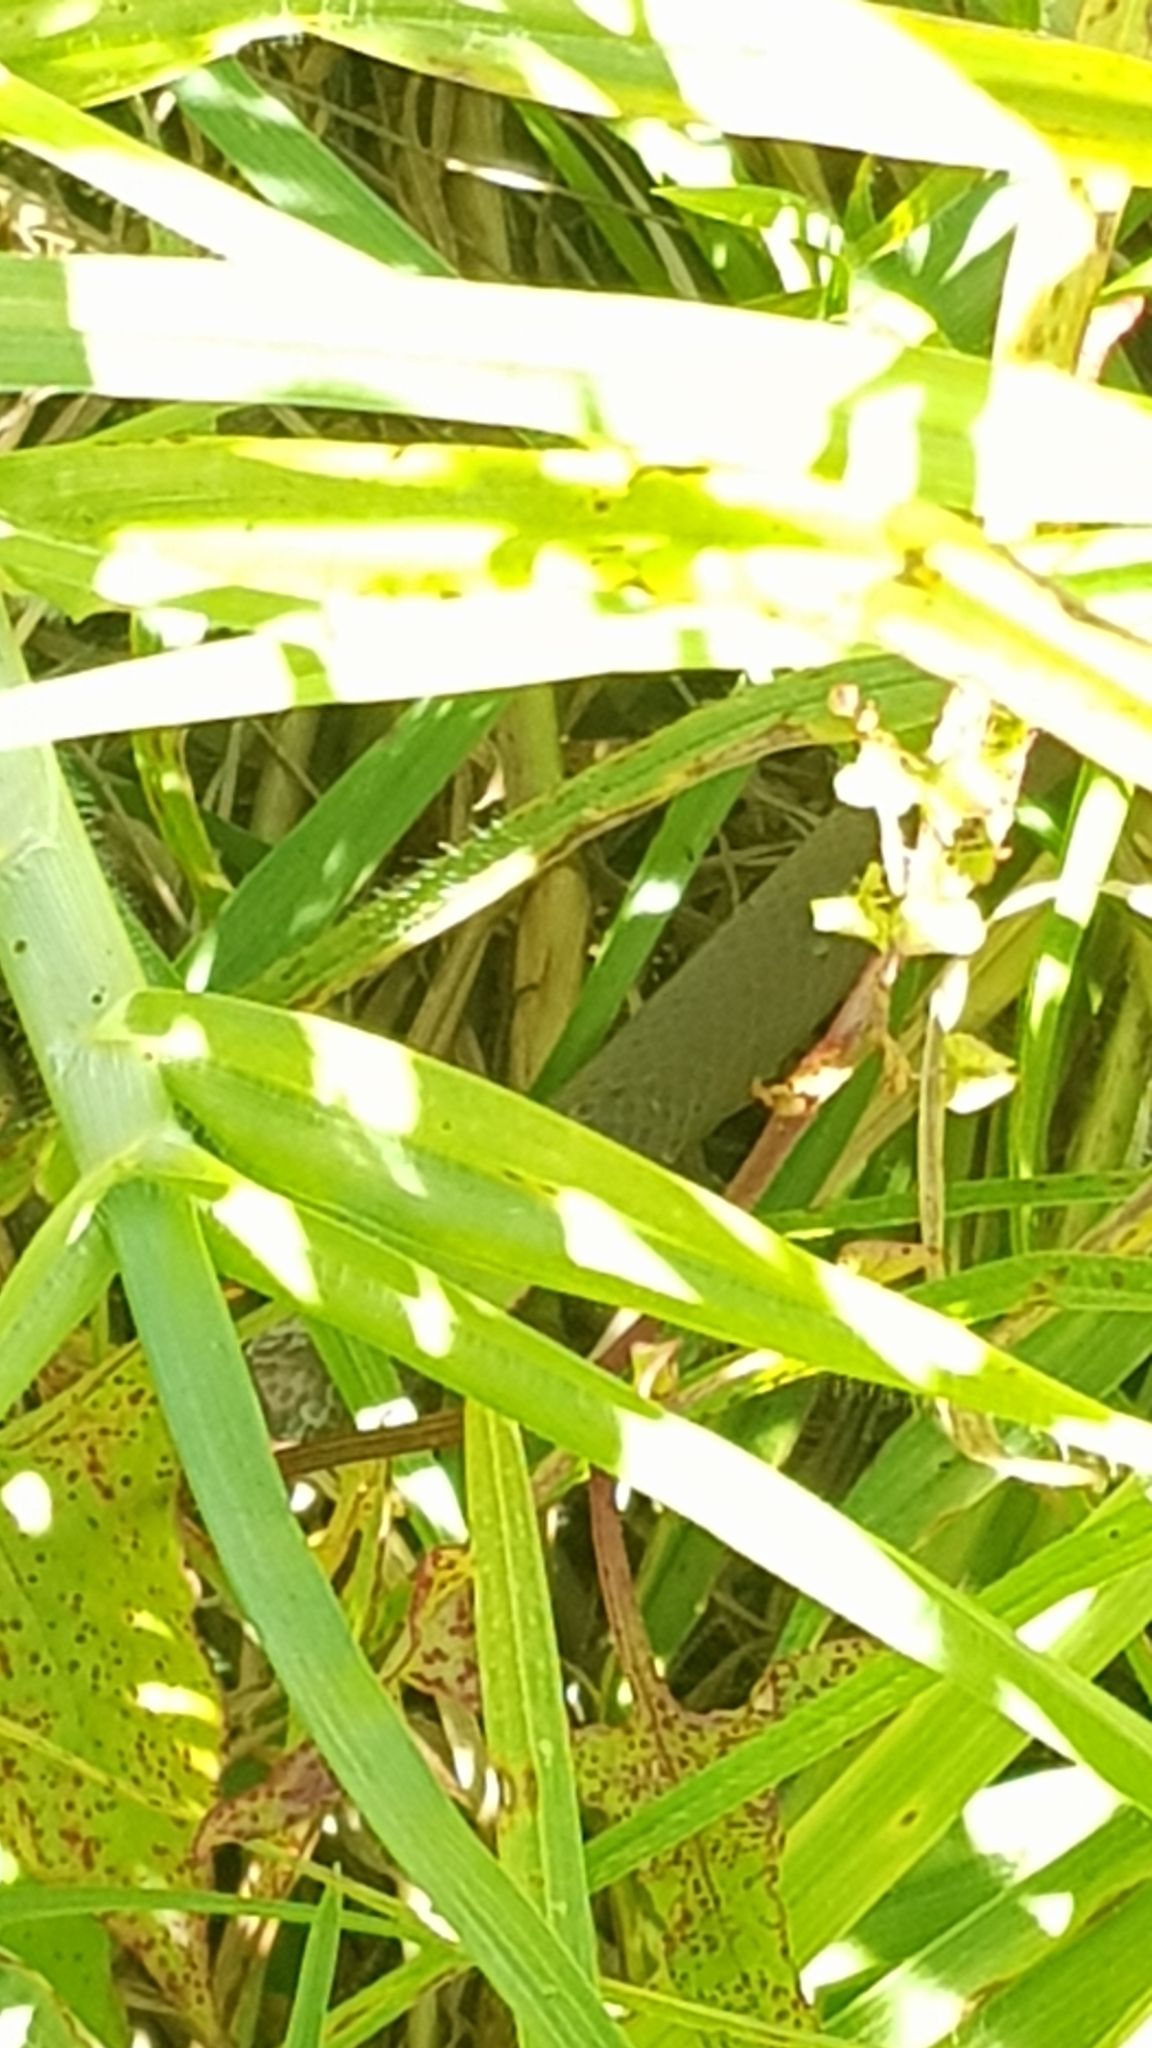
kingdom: Animalia
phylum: Chordata
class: Squamata
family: Pygopodidae
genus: Lialis
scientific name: Lialis burtonis
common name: Burton's legless lizard
